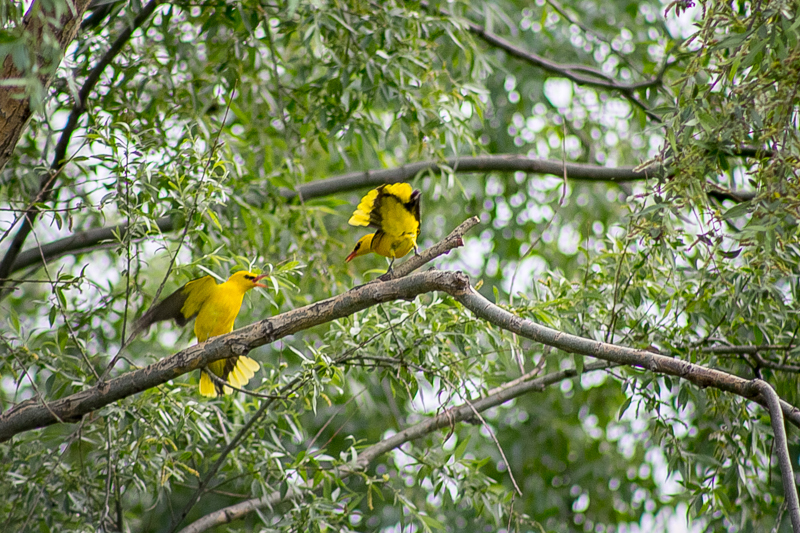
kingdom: Animalia
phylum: Chordata
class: Aves
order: Passeriformes
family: Oriolidae
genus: Oriolus
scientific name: Oriolus oriolus
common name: Eurasian golden oriole
